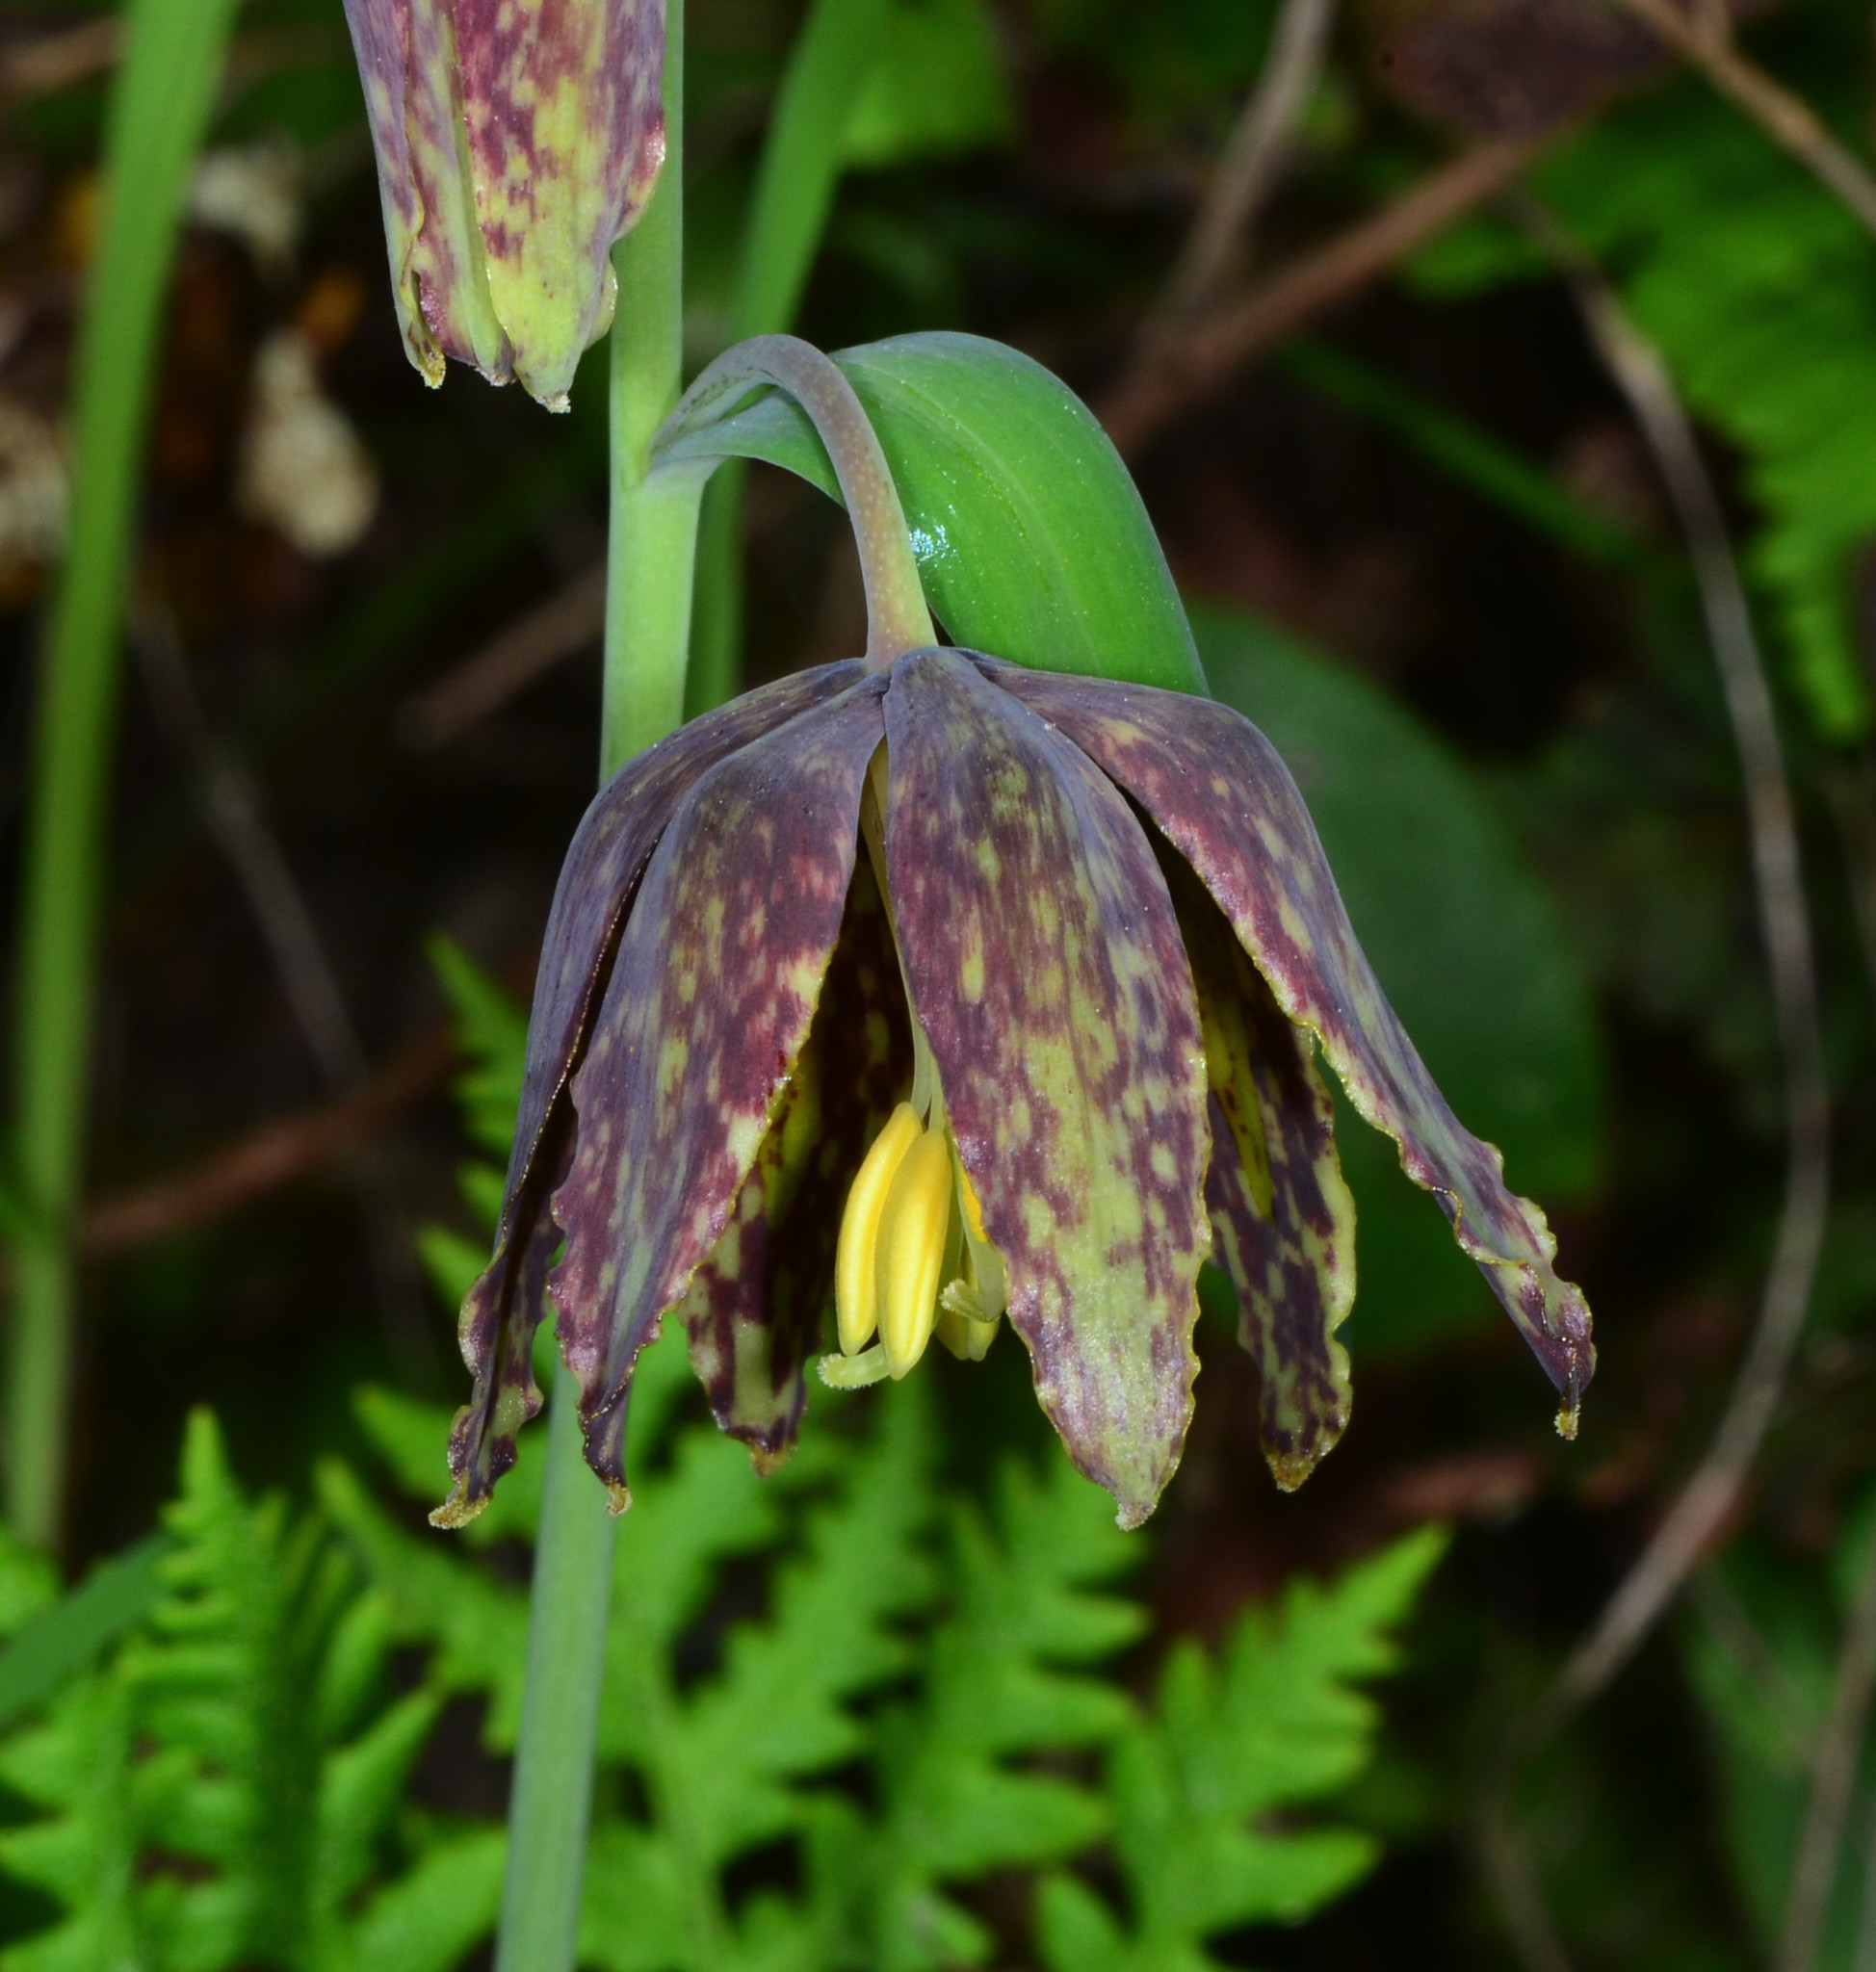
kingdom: Plantae
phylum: Tracheophyta
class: Liliopsida
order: Liliales
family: Liliaceae
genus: Fritillaria
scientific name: Fritillaria affinis
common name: Ojai fritillary
